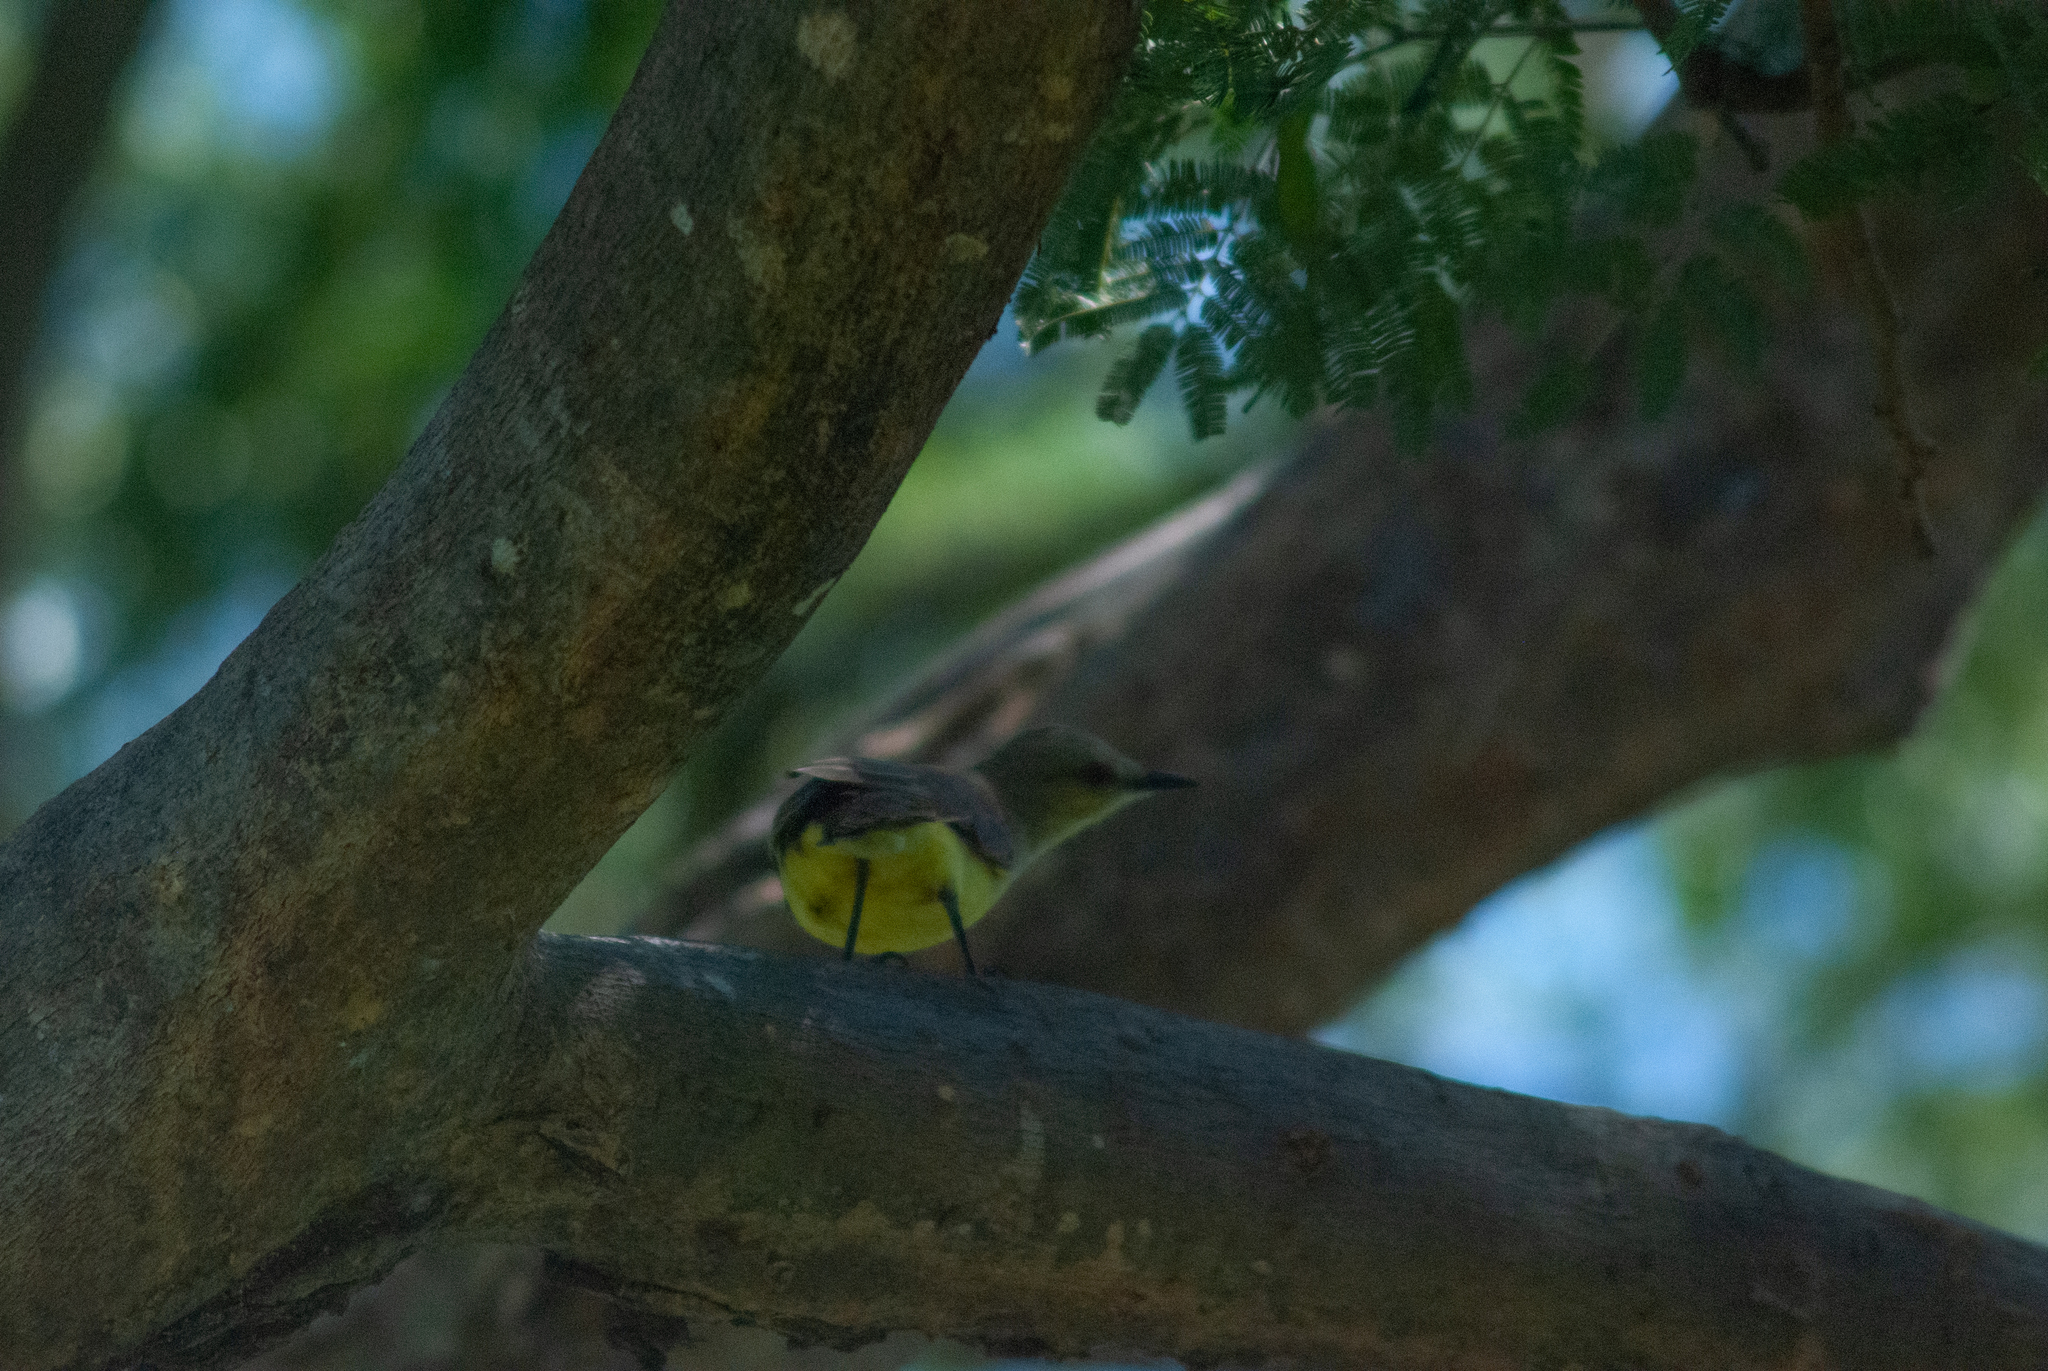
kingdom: Animalia
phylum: Chordata
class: Aves
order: Passeriformes
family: Tyrannidae
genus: Machetornis
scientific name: Machetornis rixosa
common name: Cattle tyrant
